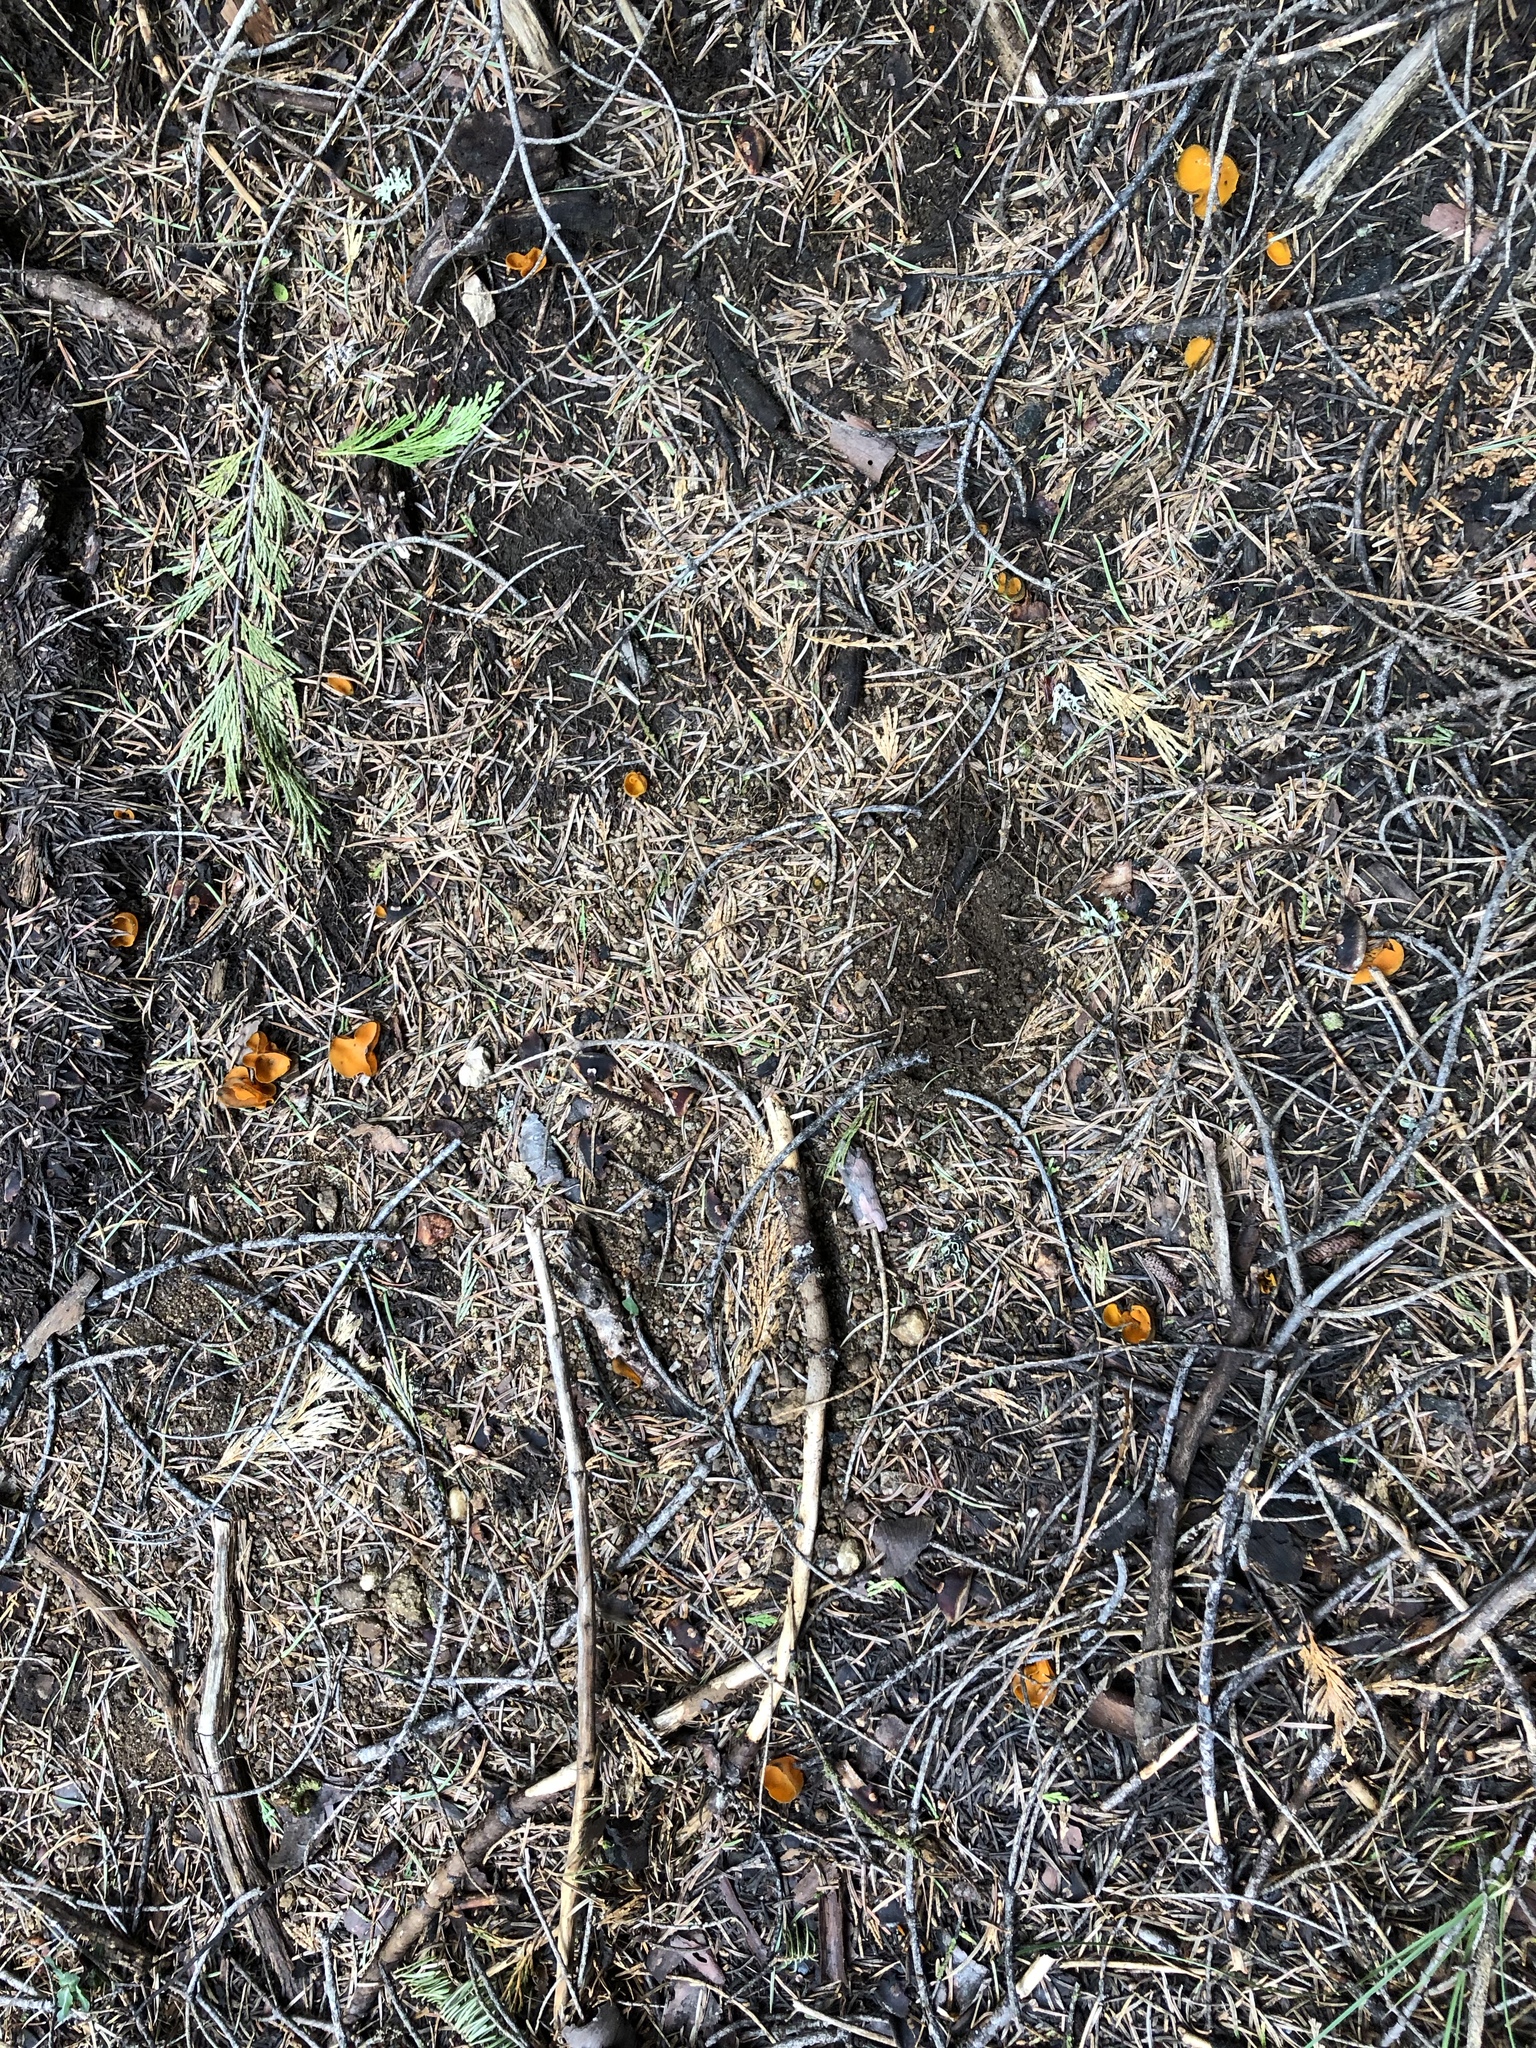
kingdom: Fungi
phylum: Ascomycota
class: Pezizomycetes
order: Pezizales
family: Caloscyphaceae
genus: Caloscypha
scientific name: Caloscypha fulgens
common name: Golden cup
